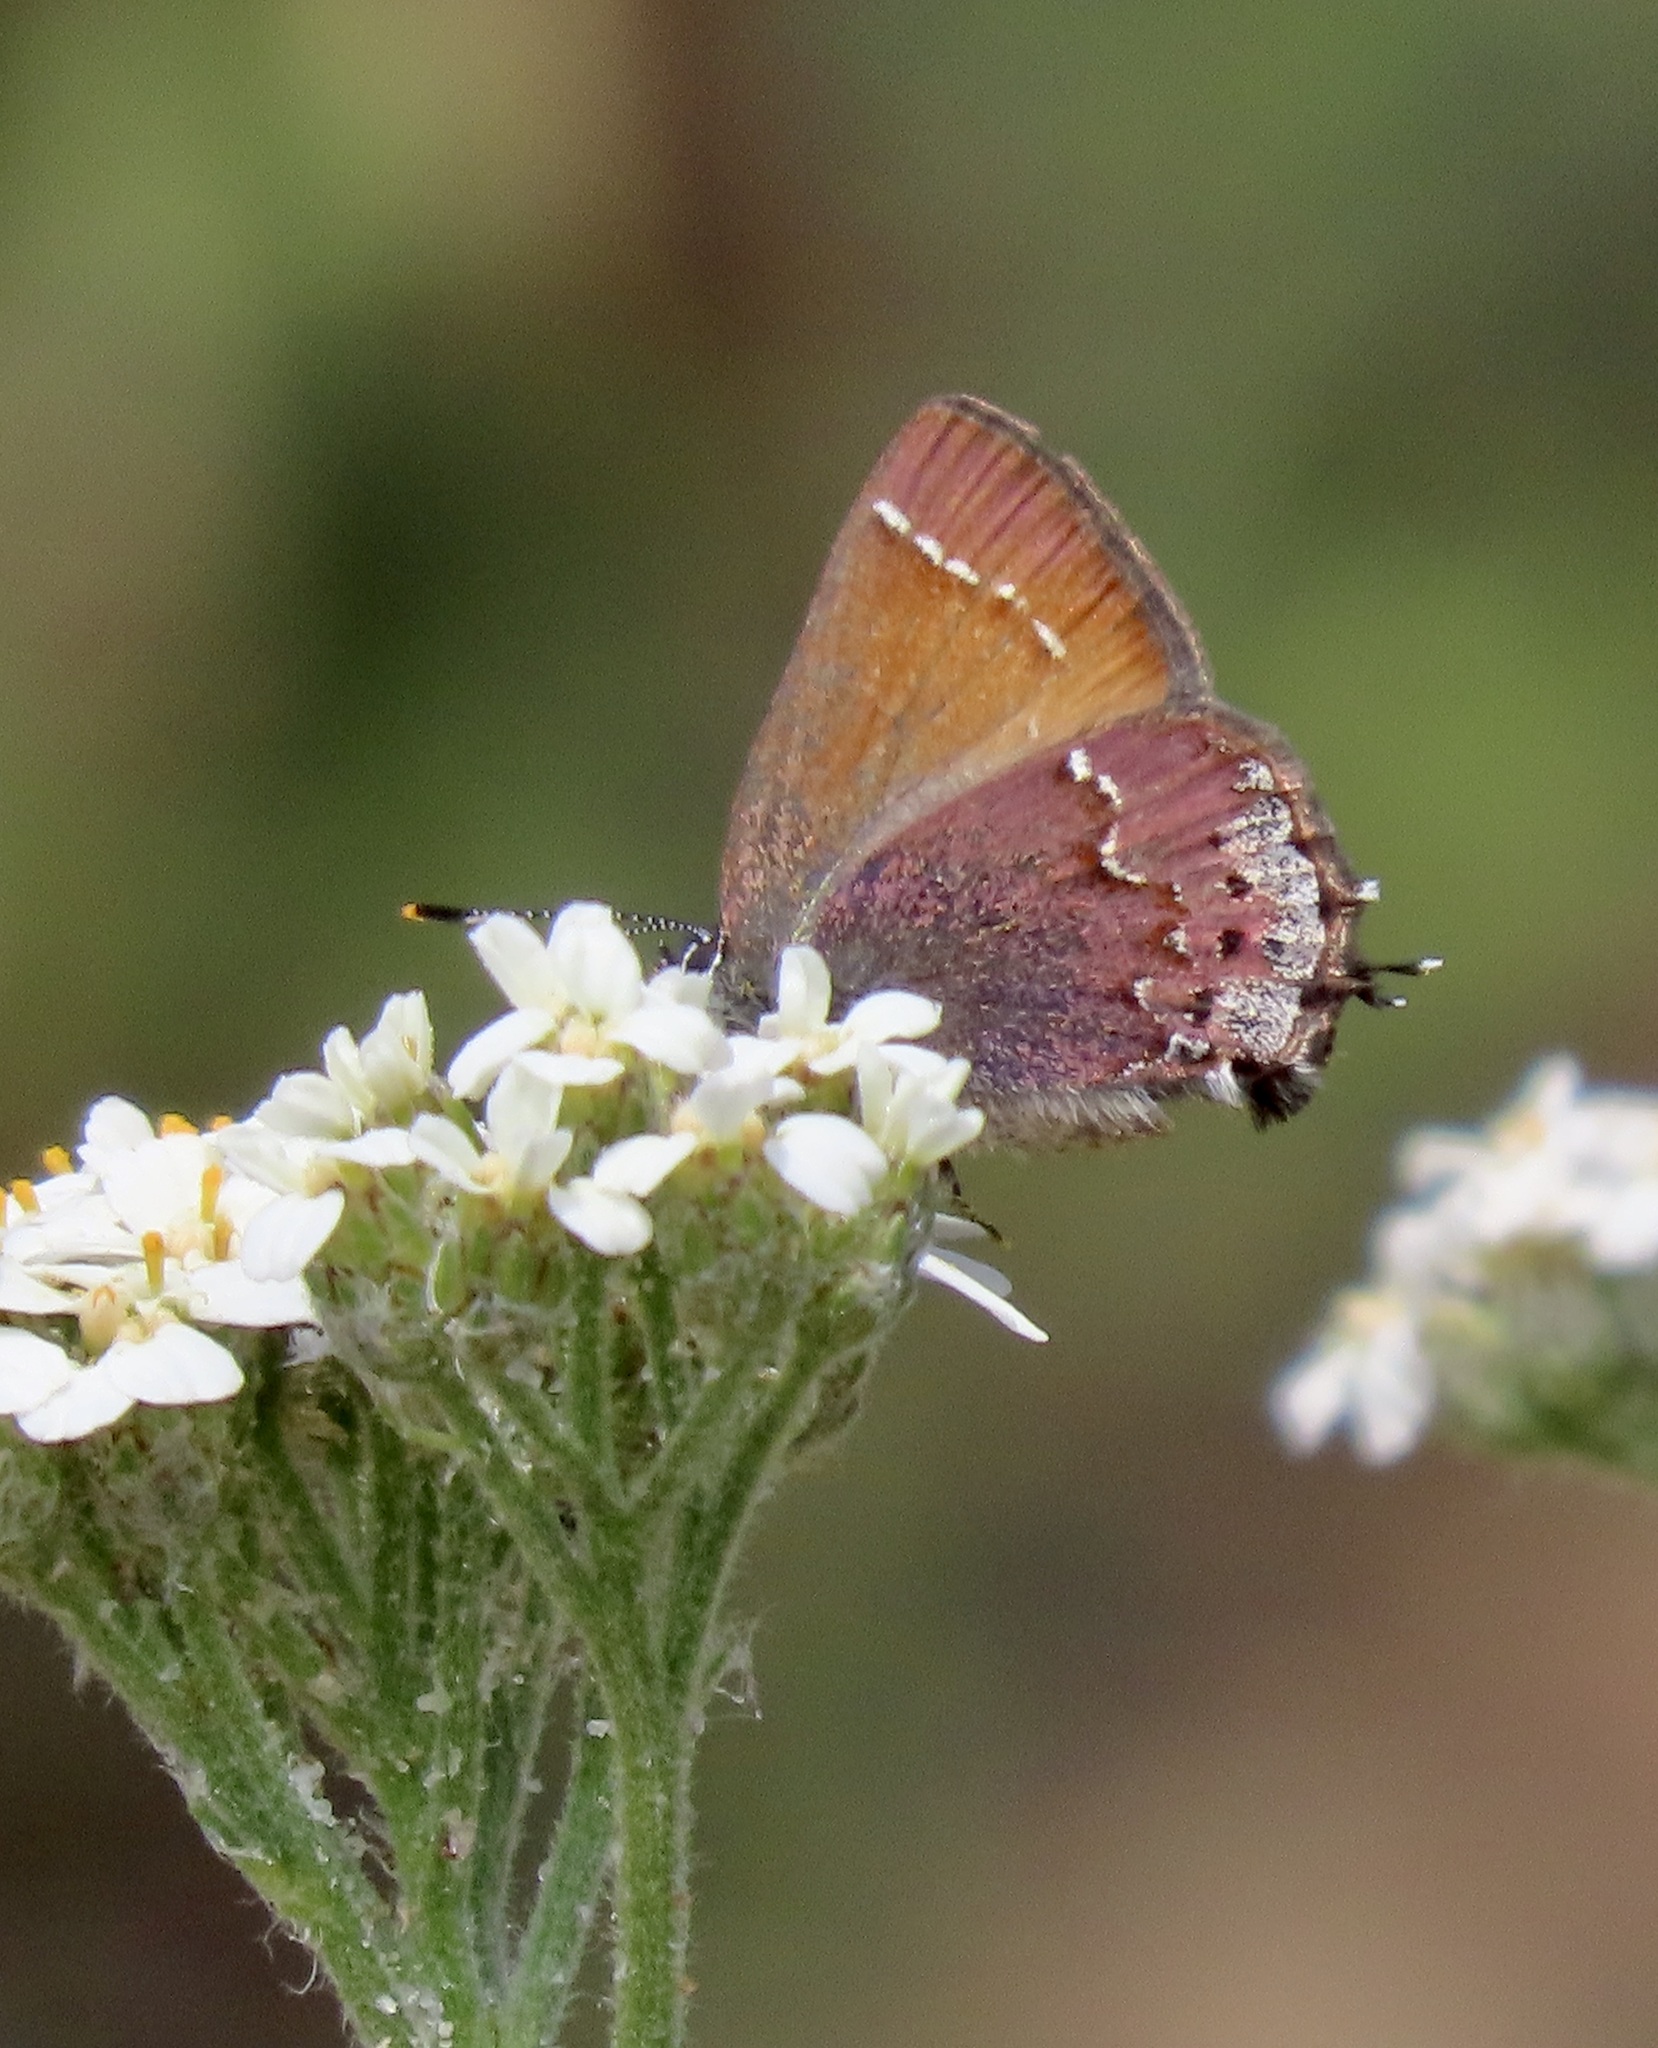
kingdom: Animalia
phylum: Arthropoda
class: Insecta
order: Lepidoptera
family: Lycaenidae
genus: Callophrys
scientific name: Callophrys muiri
